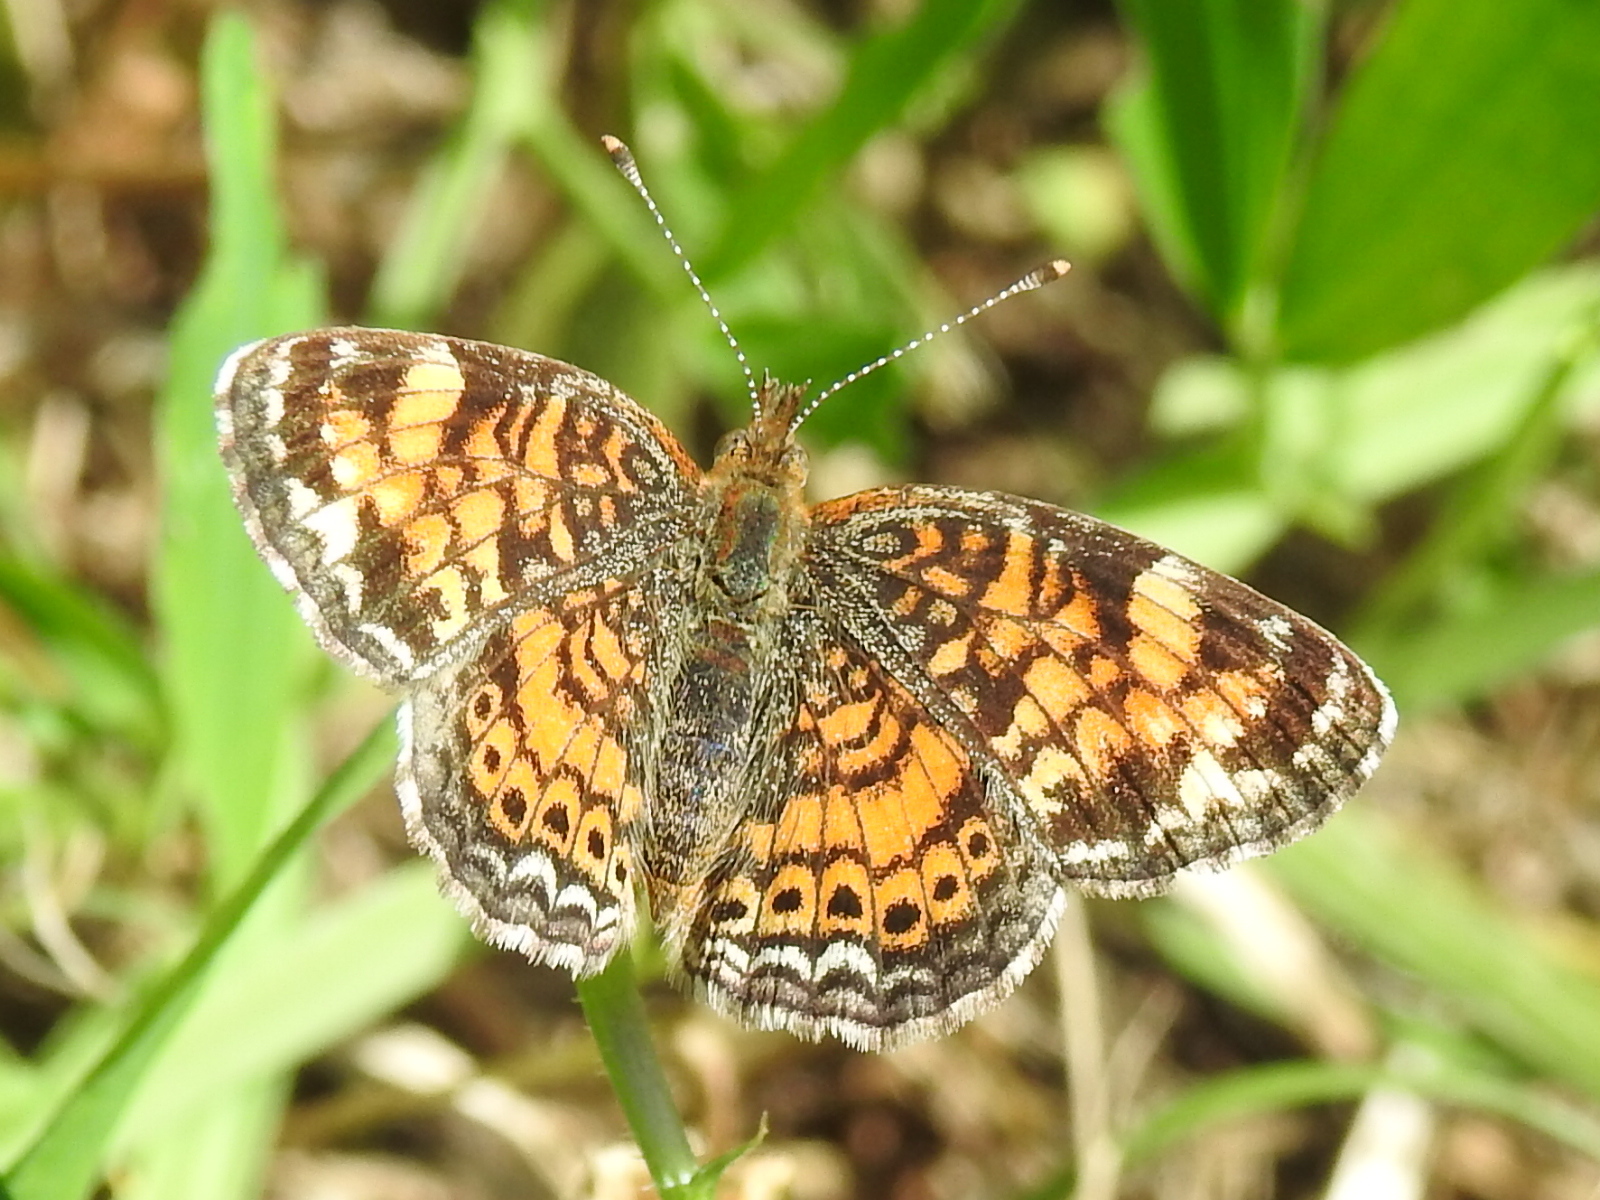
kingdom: Animalia
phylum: Arthropoda
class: Insecta
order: Lepidoptera
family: Nymphalidae
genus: Phyciodes
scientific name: Phyciodes tharos
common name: Pearl crescent
